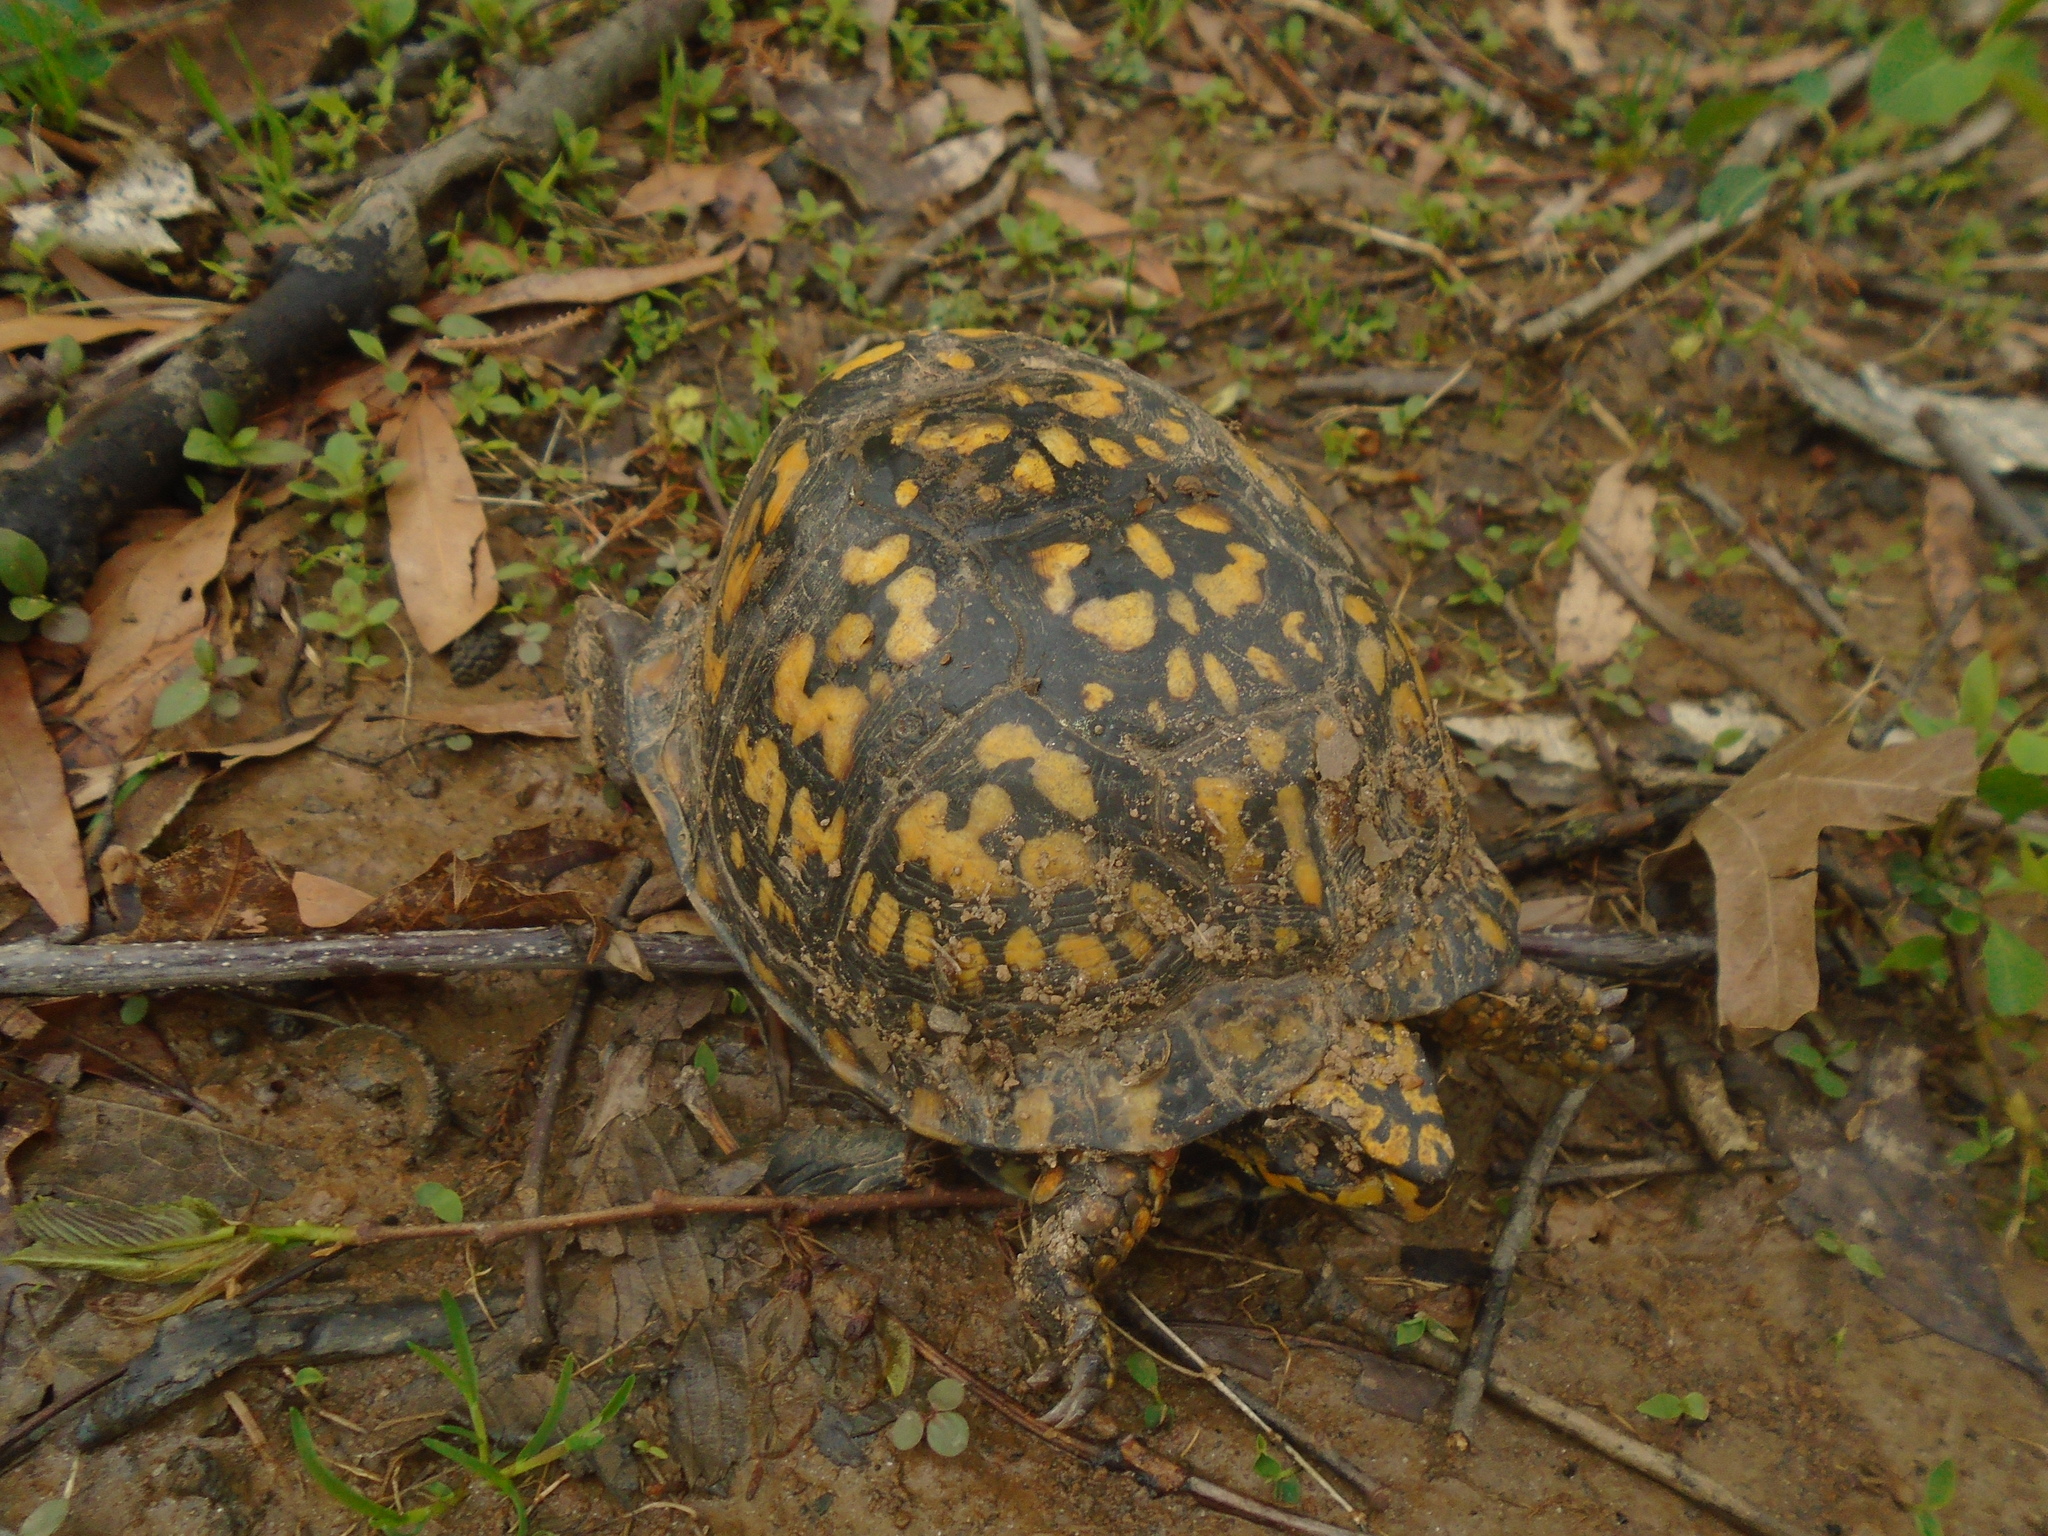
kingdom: Animalia
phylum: Chordata
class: Testudines
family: Emydidae
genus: Terrapene
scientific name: Terrapene carolina
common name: Common box turtle
